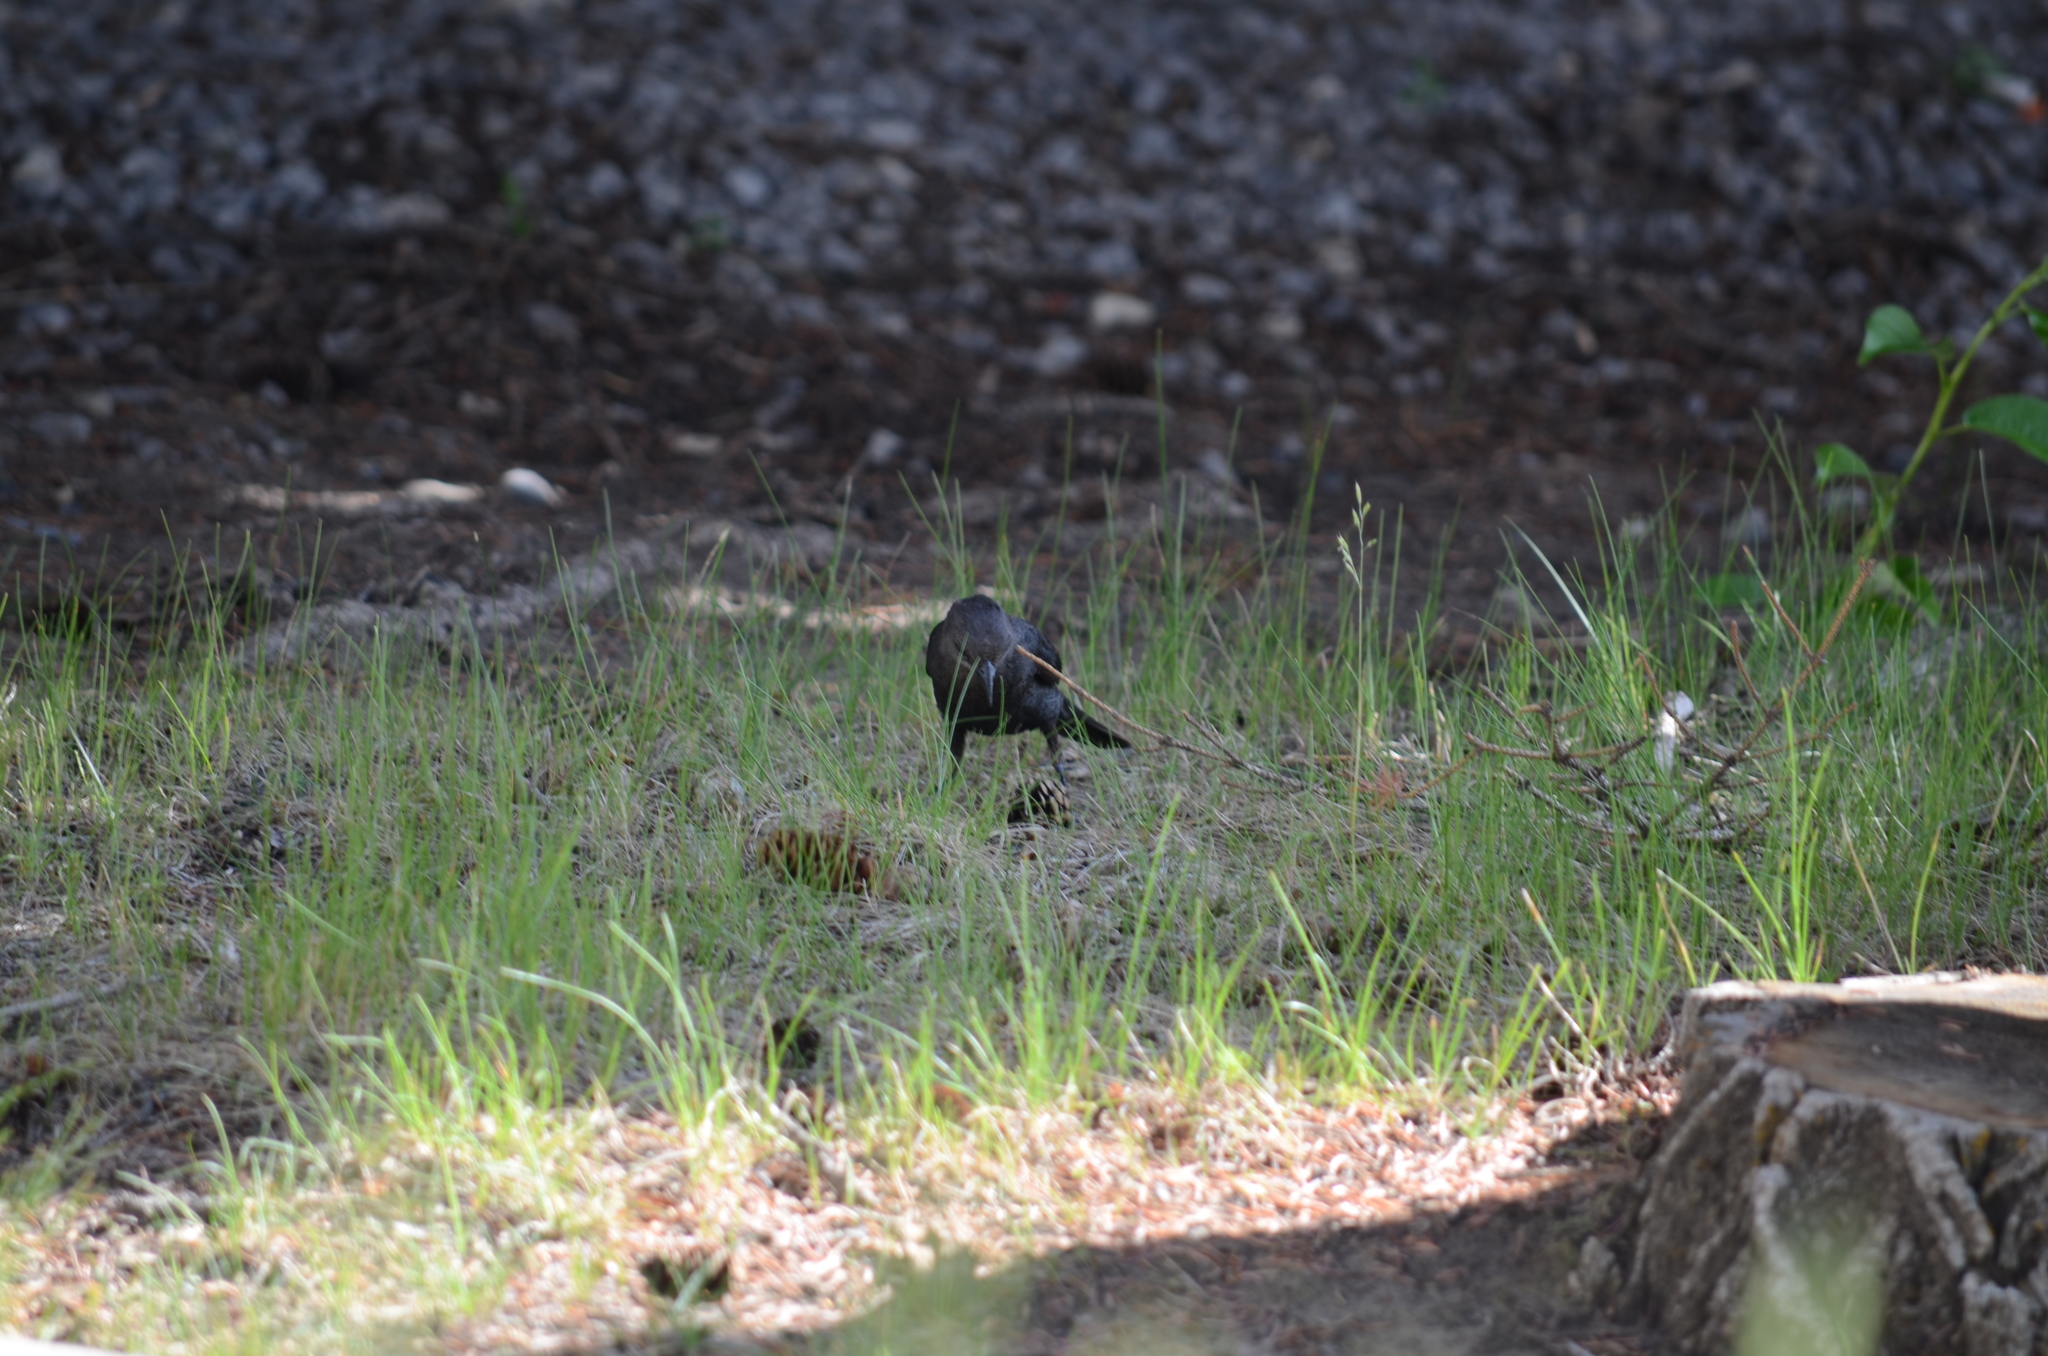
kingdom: Animalia
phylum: Chordata
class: Aves
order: Passeriformes
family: Icteridae
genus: Euphagus
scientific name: Euphagus cyanocephalus
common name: Brewer's blackbird
